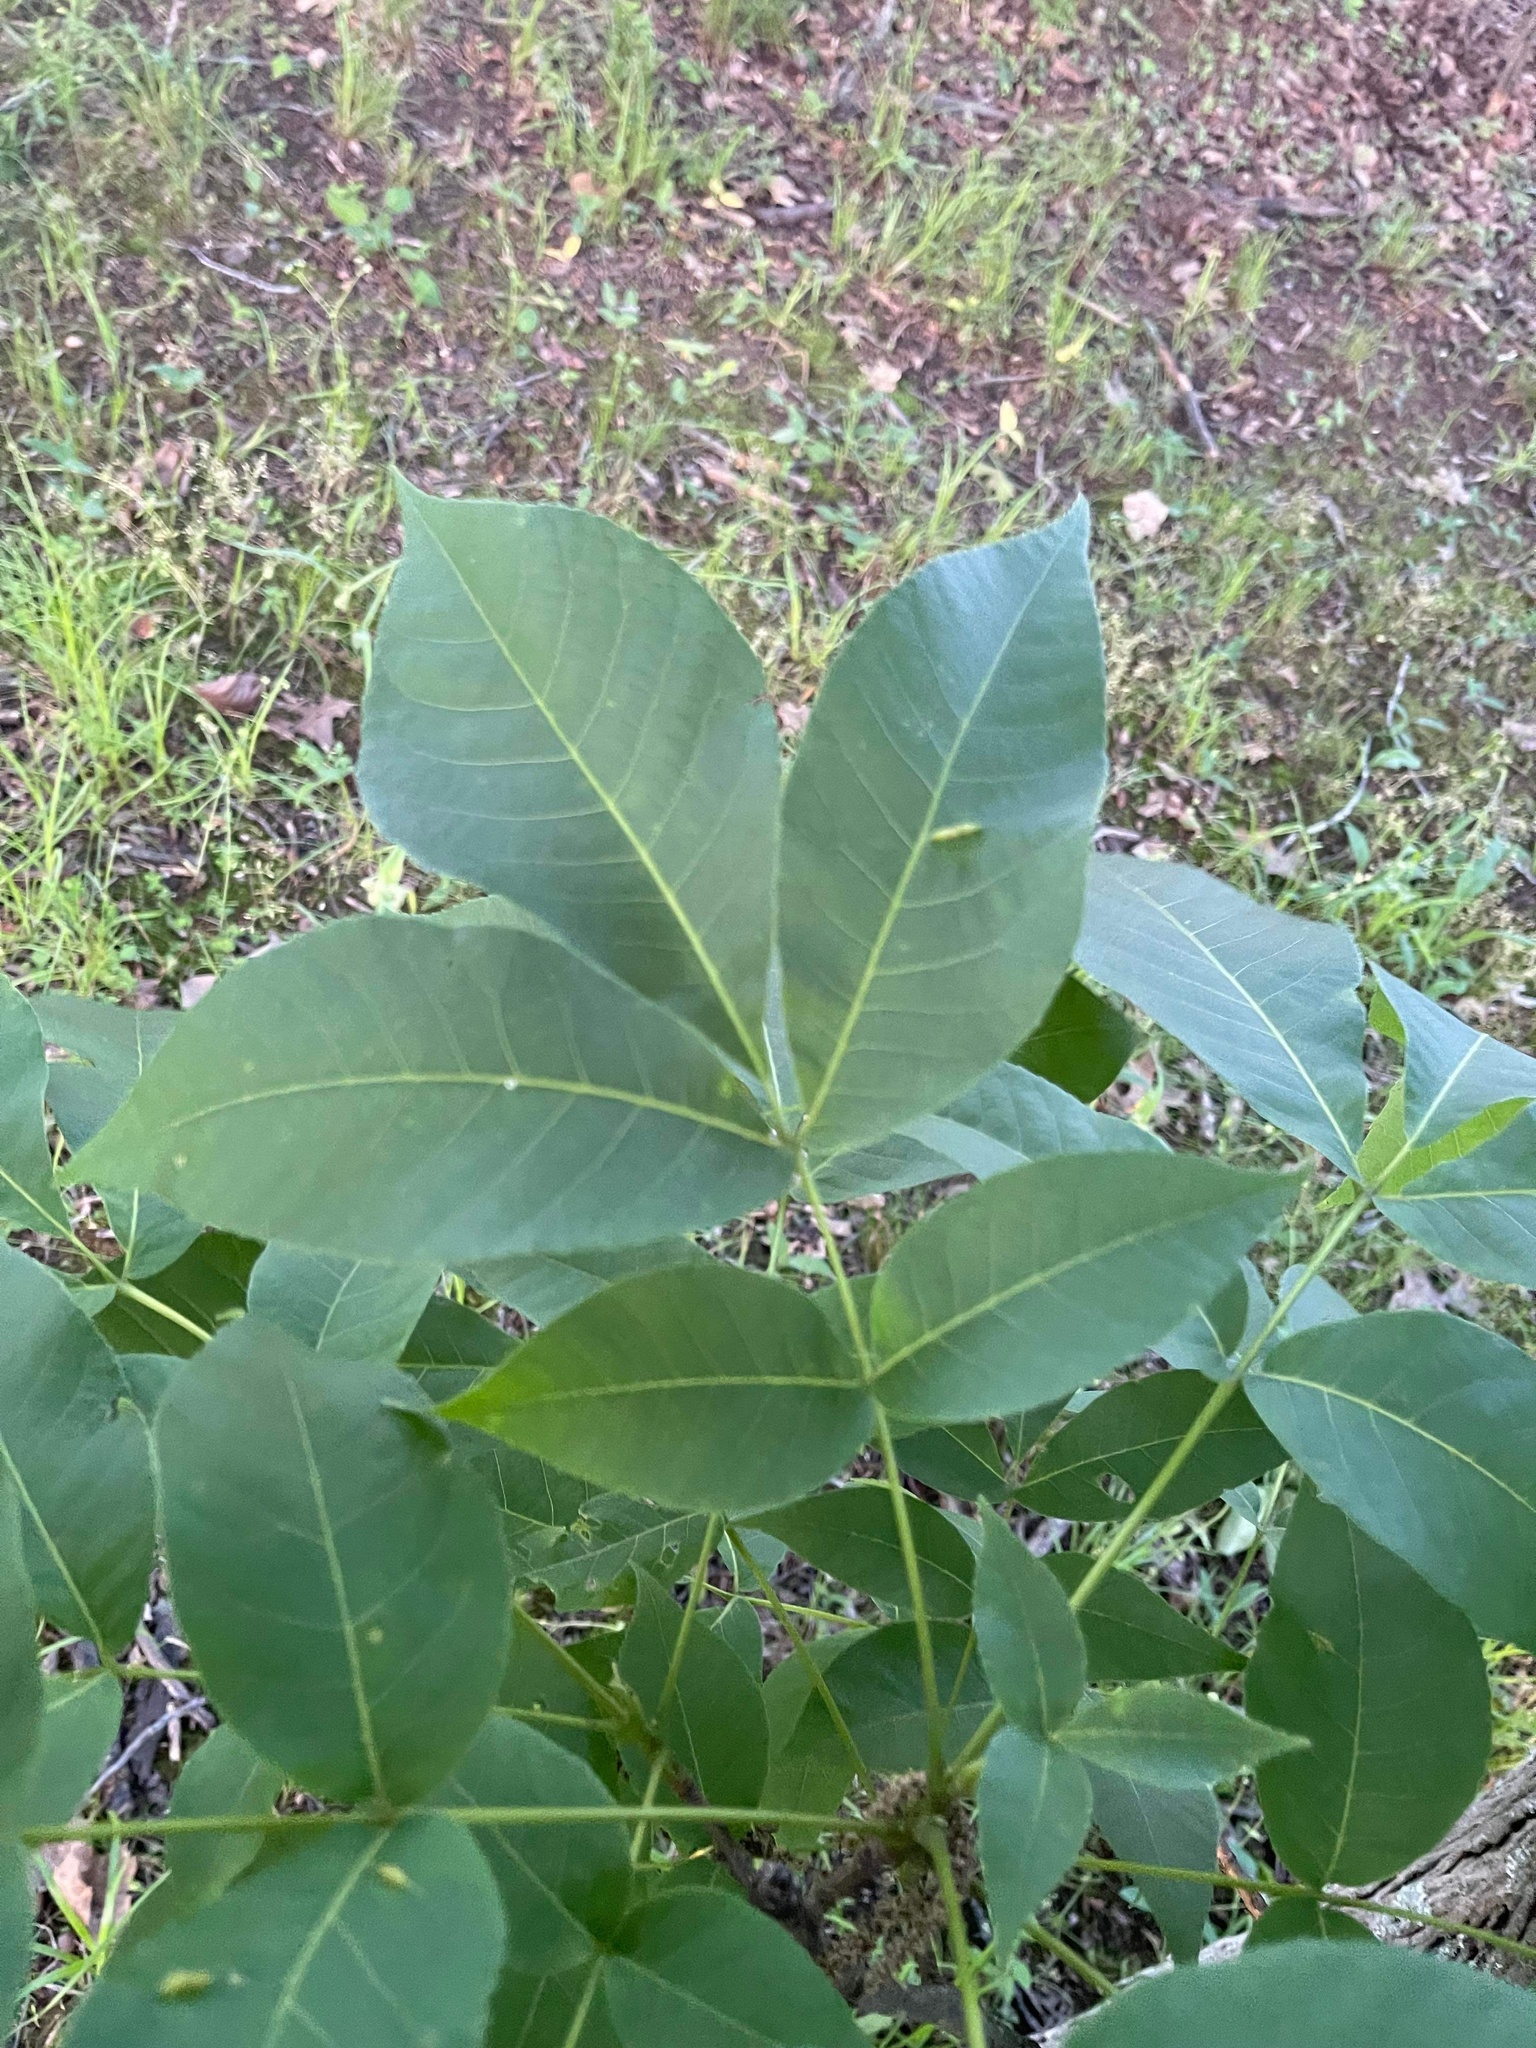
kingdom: Animalia
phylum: Arthropoda
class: Insecta
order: Hemiptera
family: Phylloxeridae
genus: Phylloxera
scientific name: Phylloxera caryaevenae
